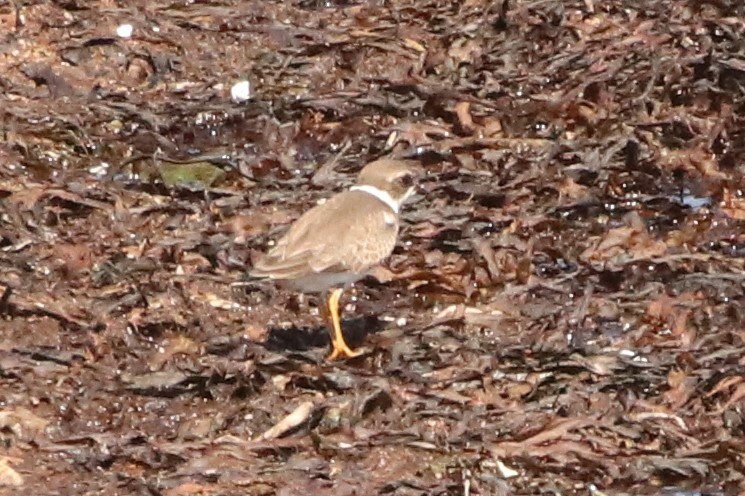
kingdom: Animalia
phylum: Chordata
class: Aves
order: Charadriiformes
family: Charadriidae
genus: Charadrius
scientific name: Charadrius semipalmatus
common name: Semipalmated plover
